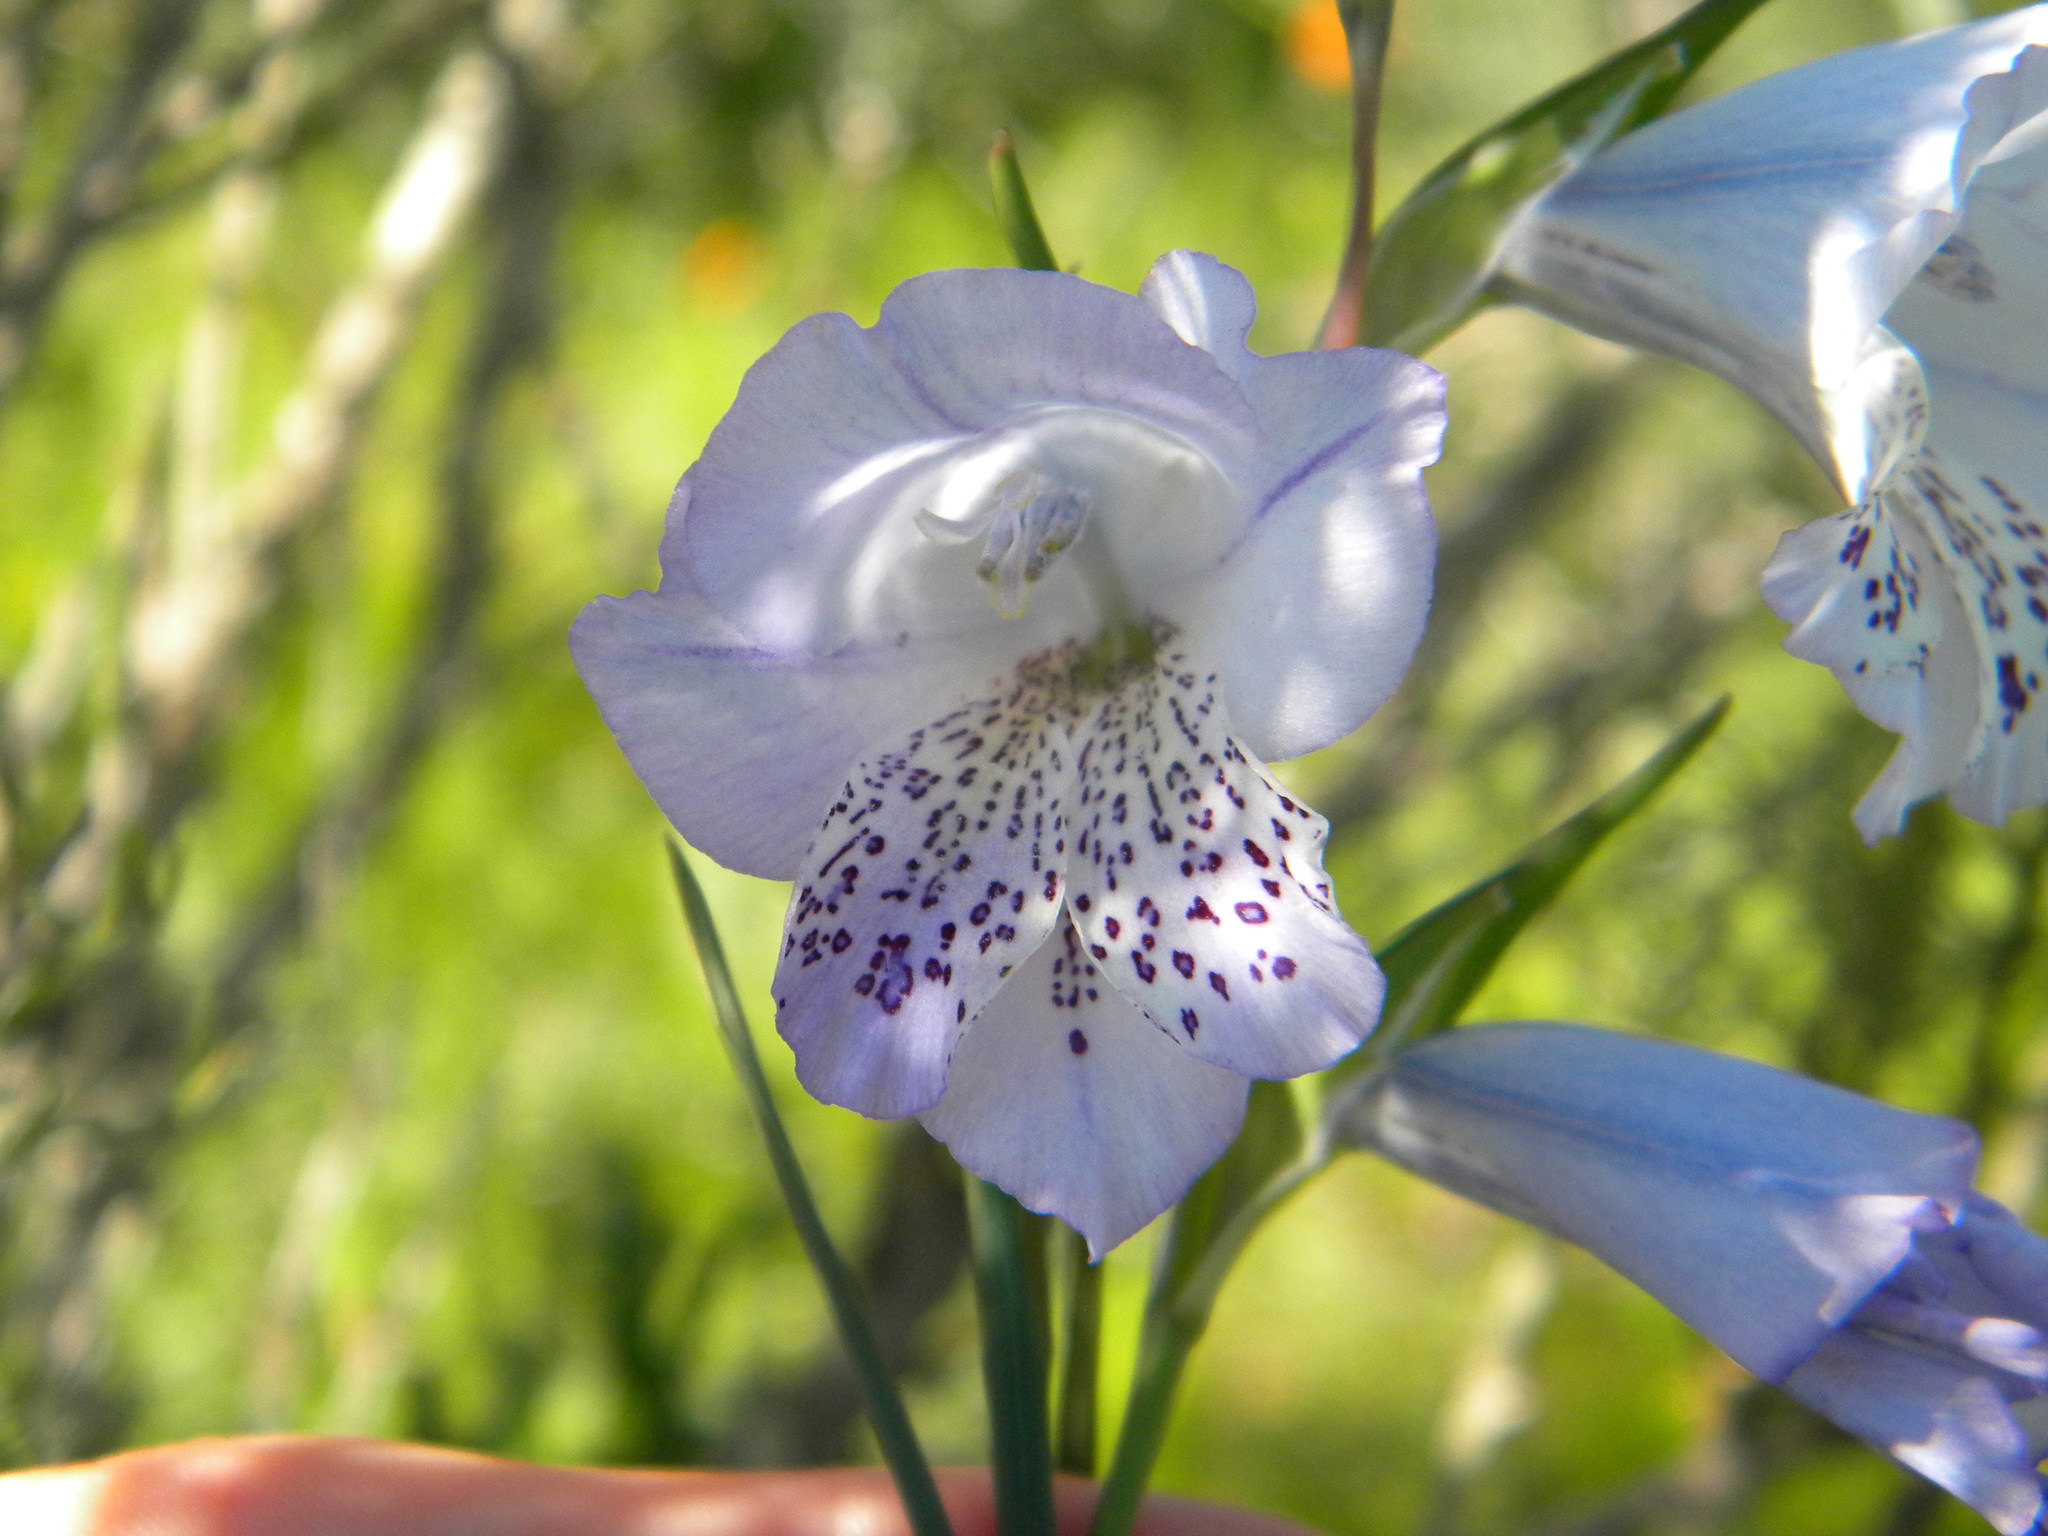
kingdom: Plantae
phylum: Tracheophyta
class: Liliopsida
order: Asparagales
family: Iridaceae
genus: Gladiolus
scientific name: Gladiolus caeruleus
